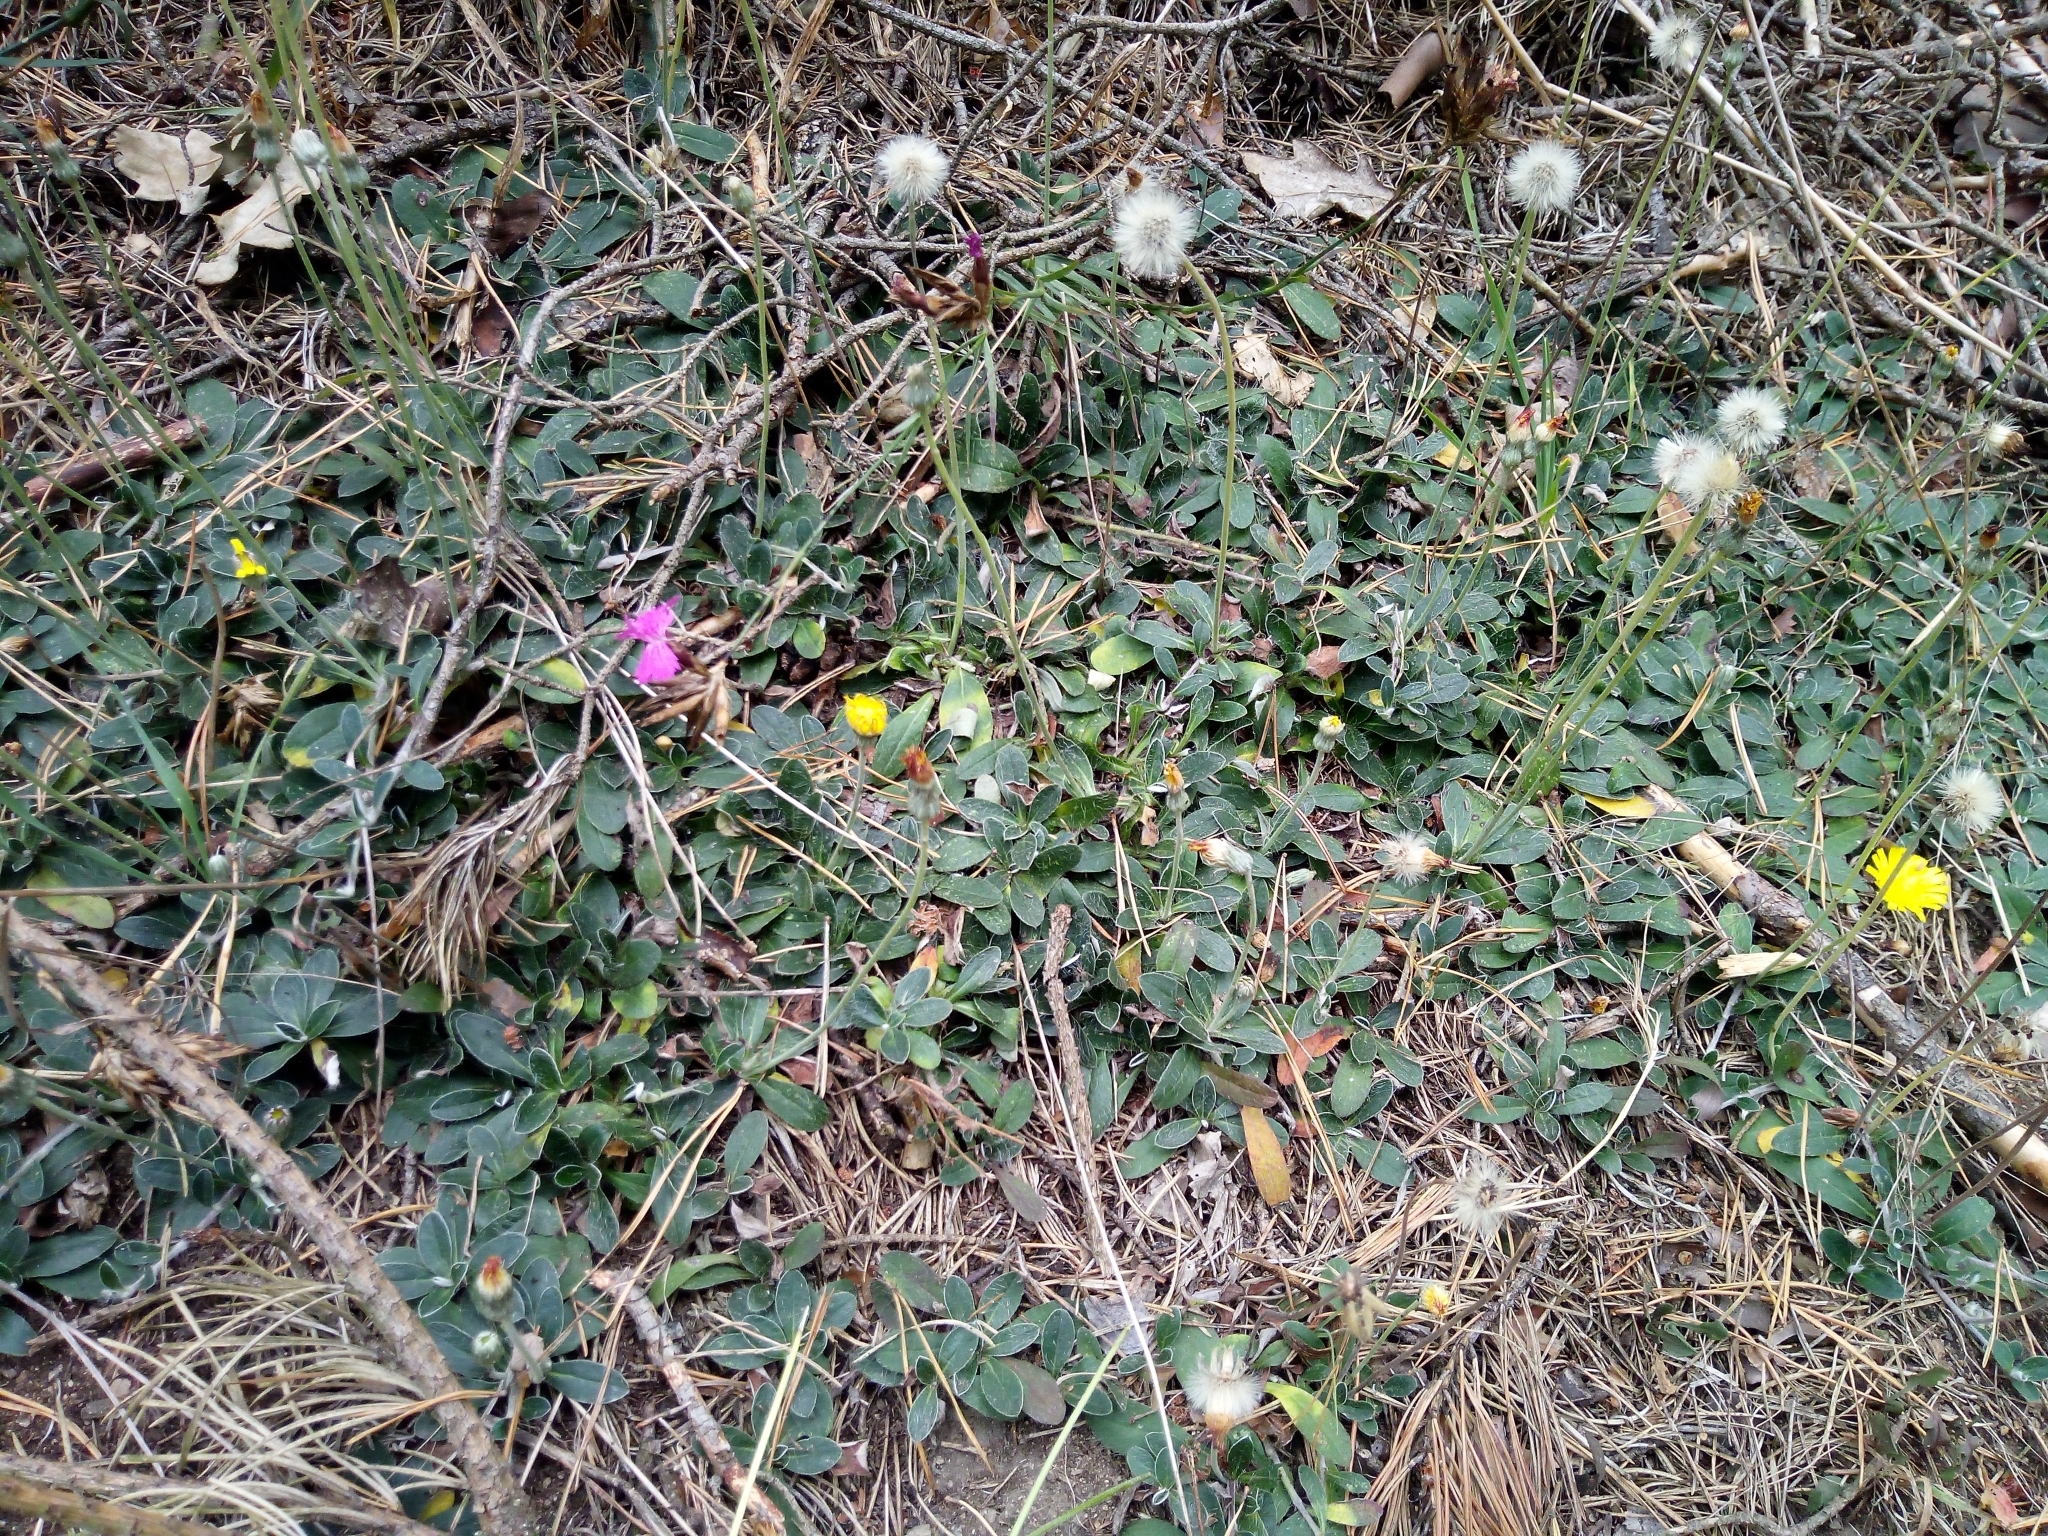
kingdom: Plantae
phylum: Tracheophyta
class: Magnoliopsida
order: Asterales
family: Asteraceae
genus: Pilosella
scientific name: Pilosella officinarum
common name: Mouse-ear hawkweed
